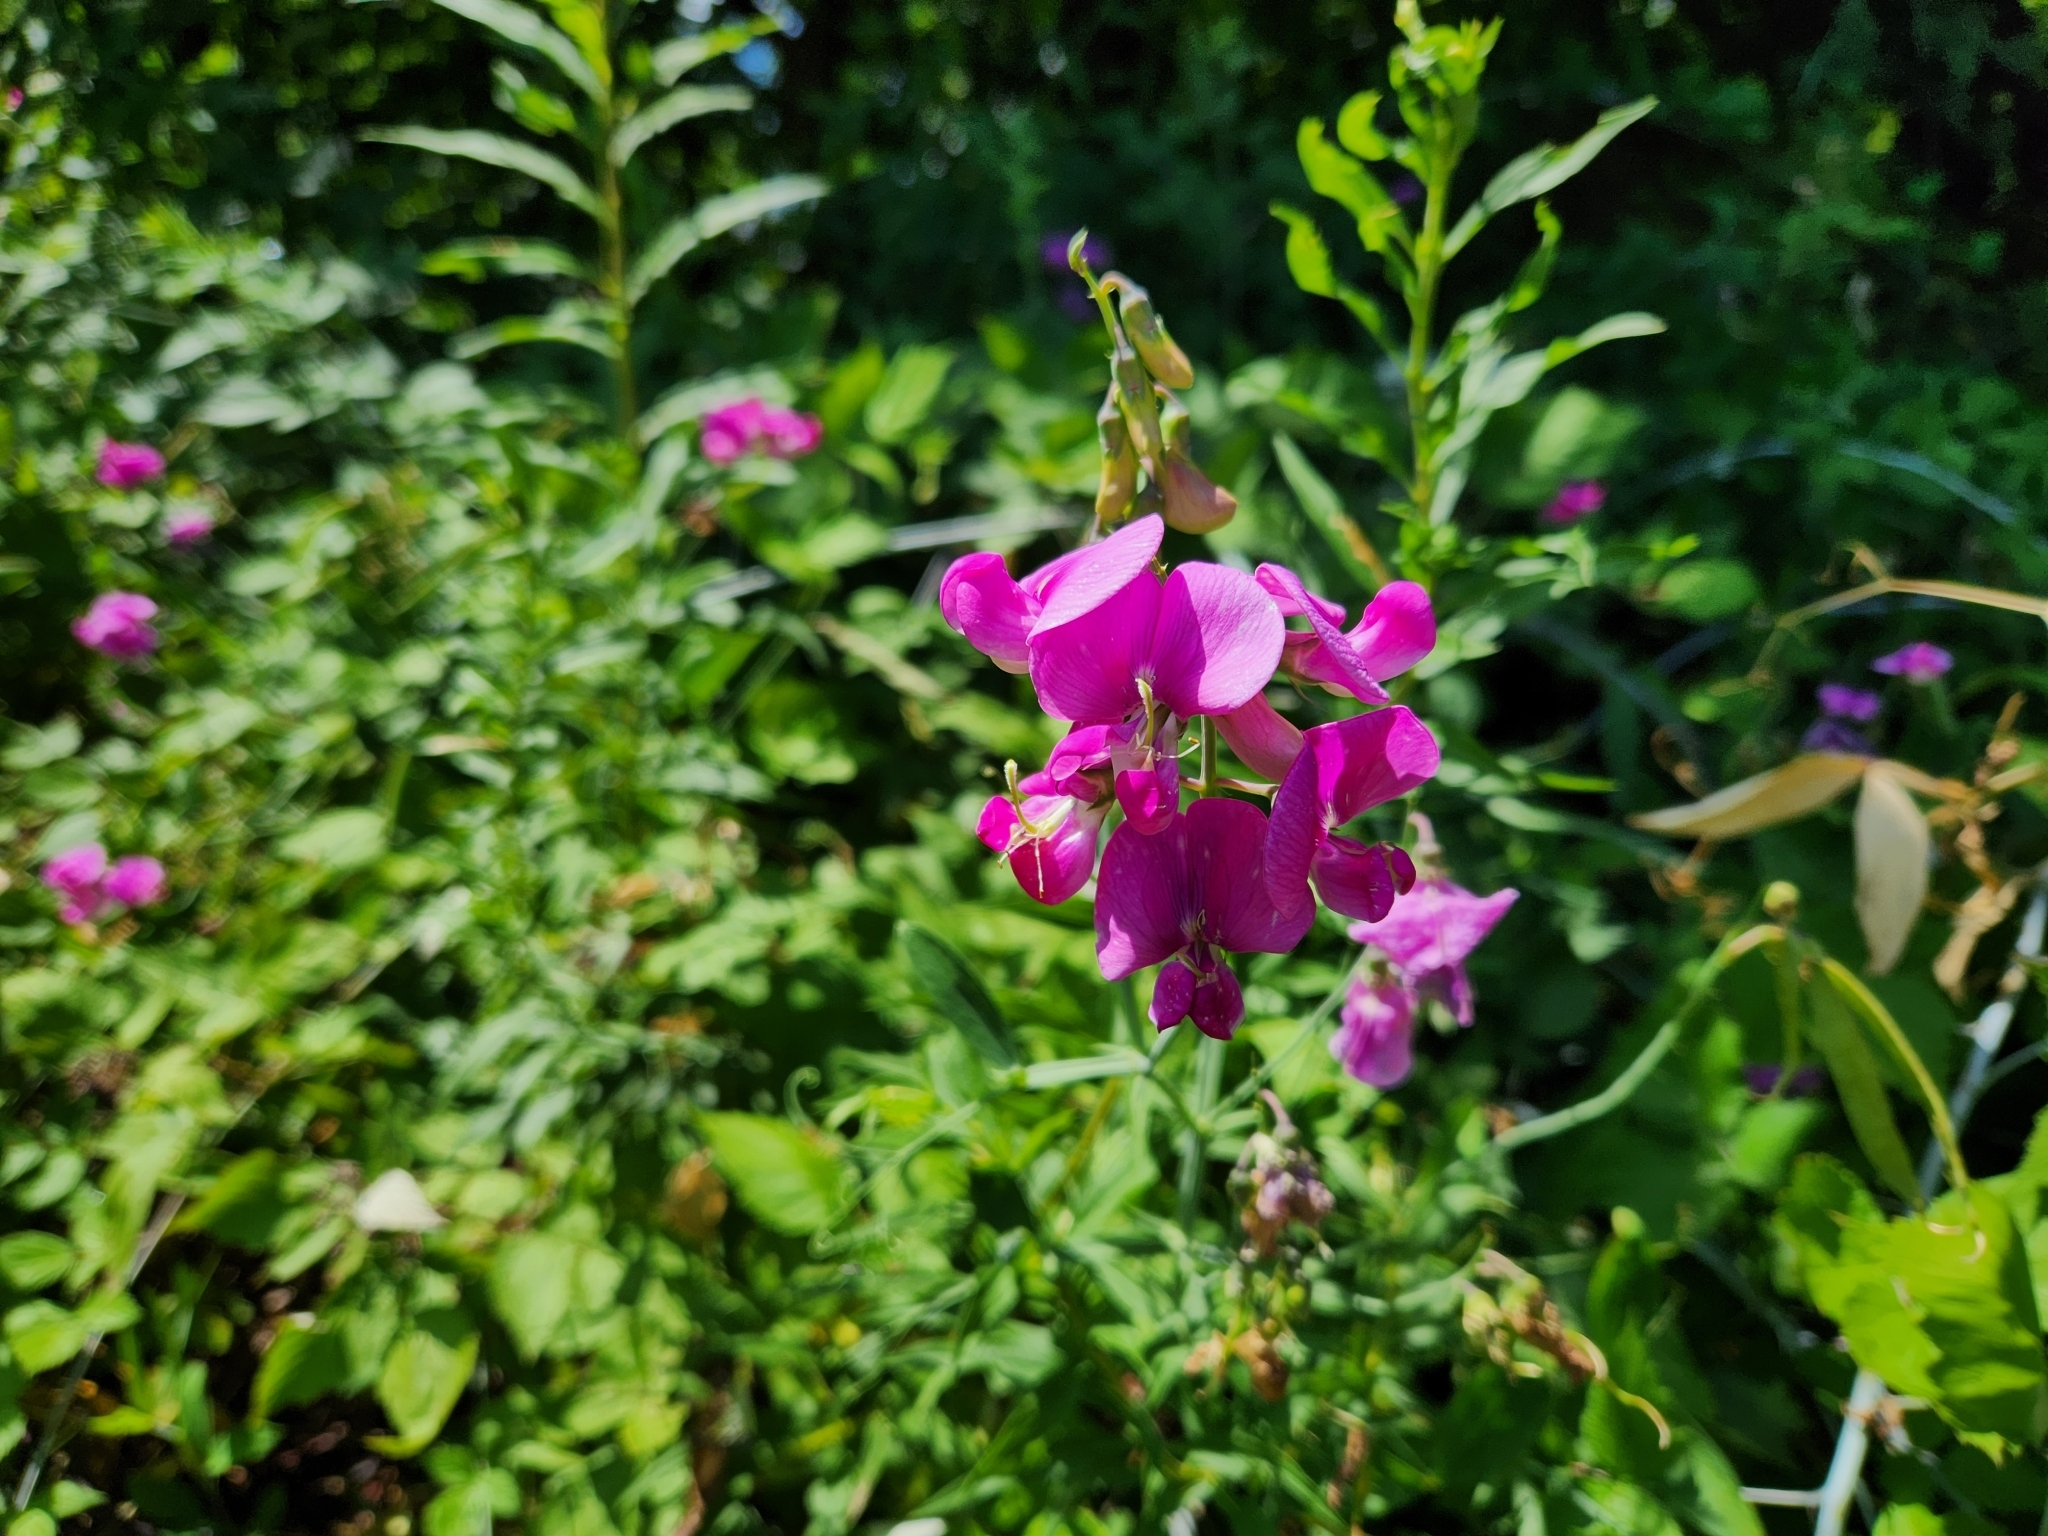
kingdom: Plantae
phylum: Tracheophyta
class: Magnoliopsida
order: Fabales
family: Fabaceae
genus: Lathyrus
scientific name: Lathyrus latifolius
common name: Perennial pea
